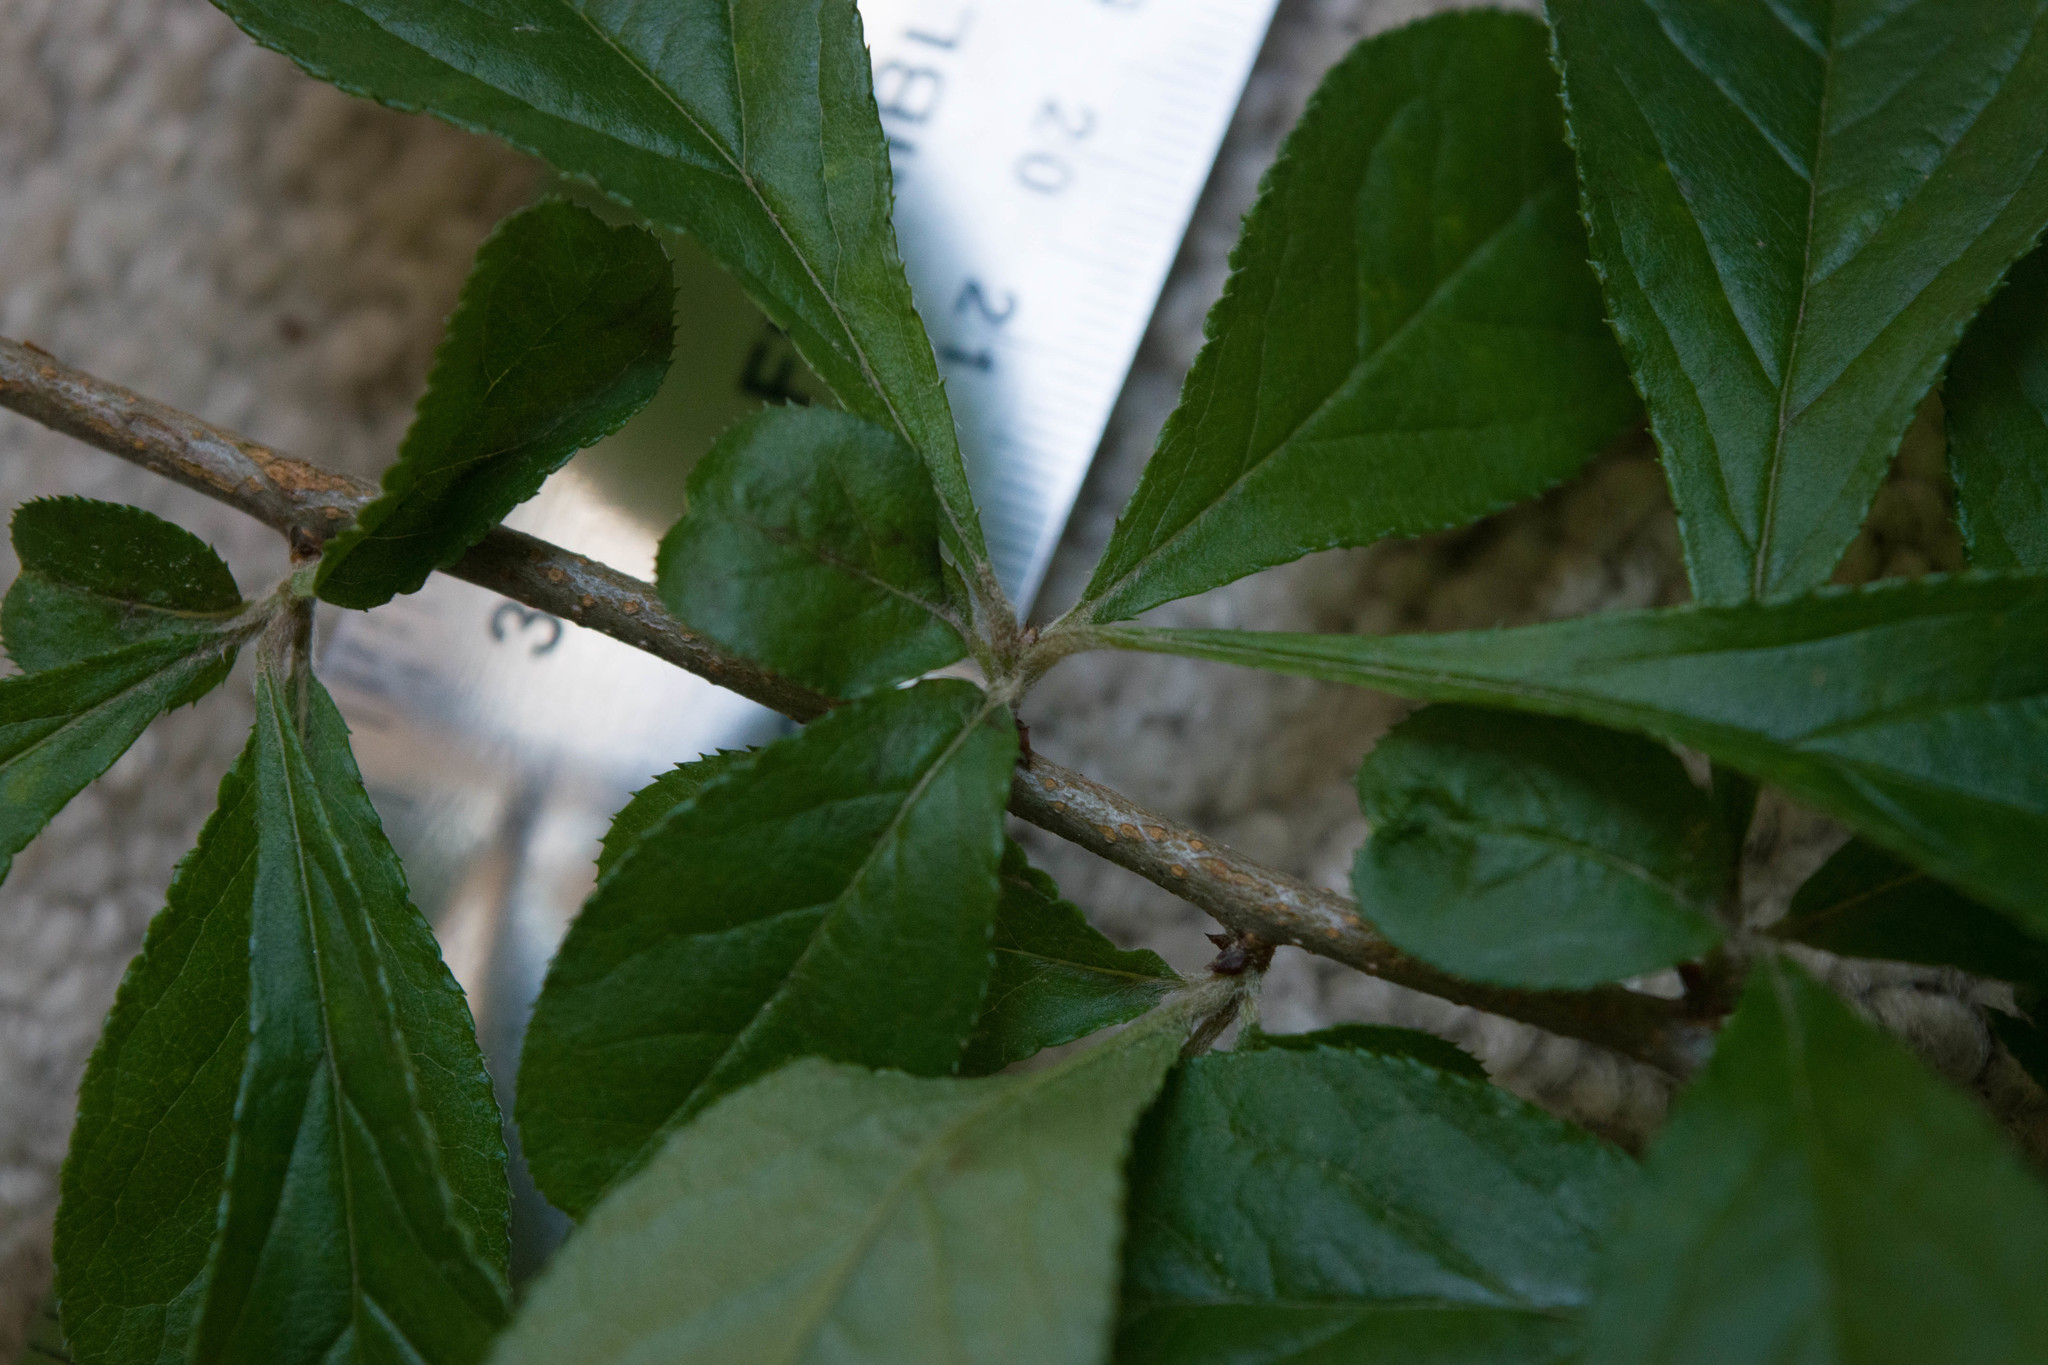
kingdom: Plantae
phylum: Tracheophyta
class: Magnoliopsida
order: Rosales
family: Rosaceae
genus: Pourthiaea
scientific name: Pourthiaea villosa
